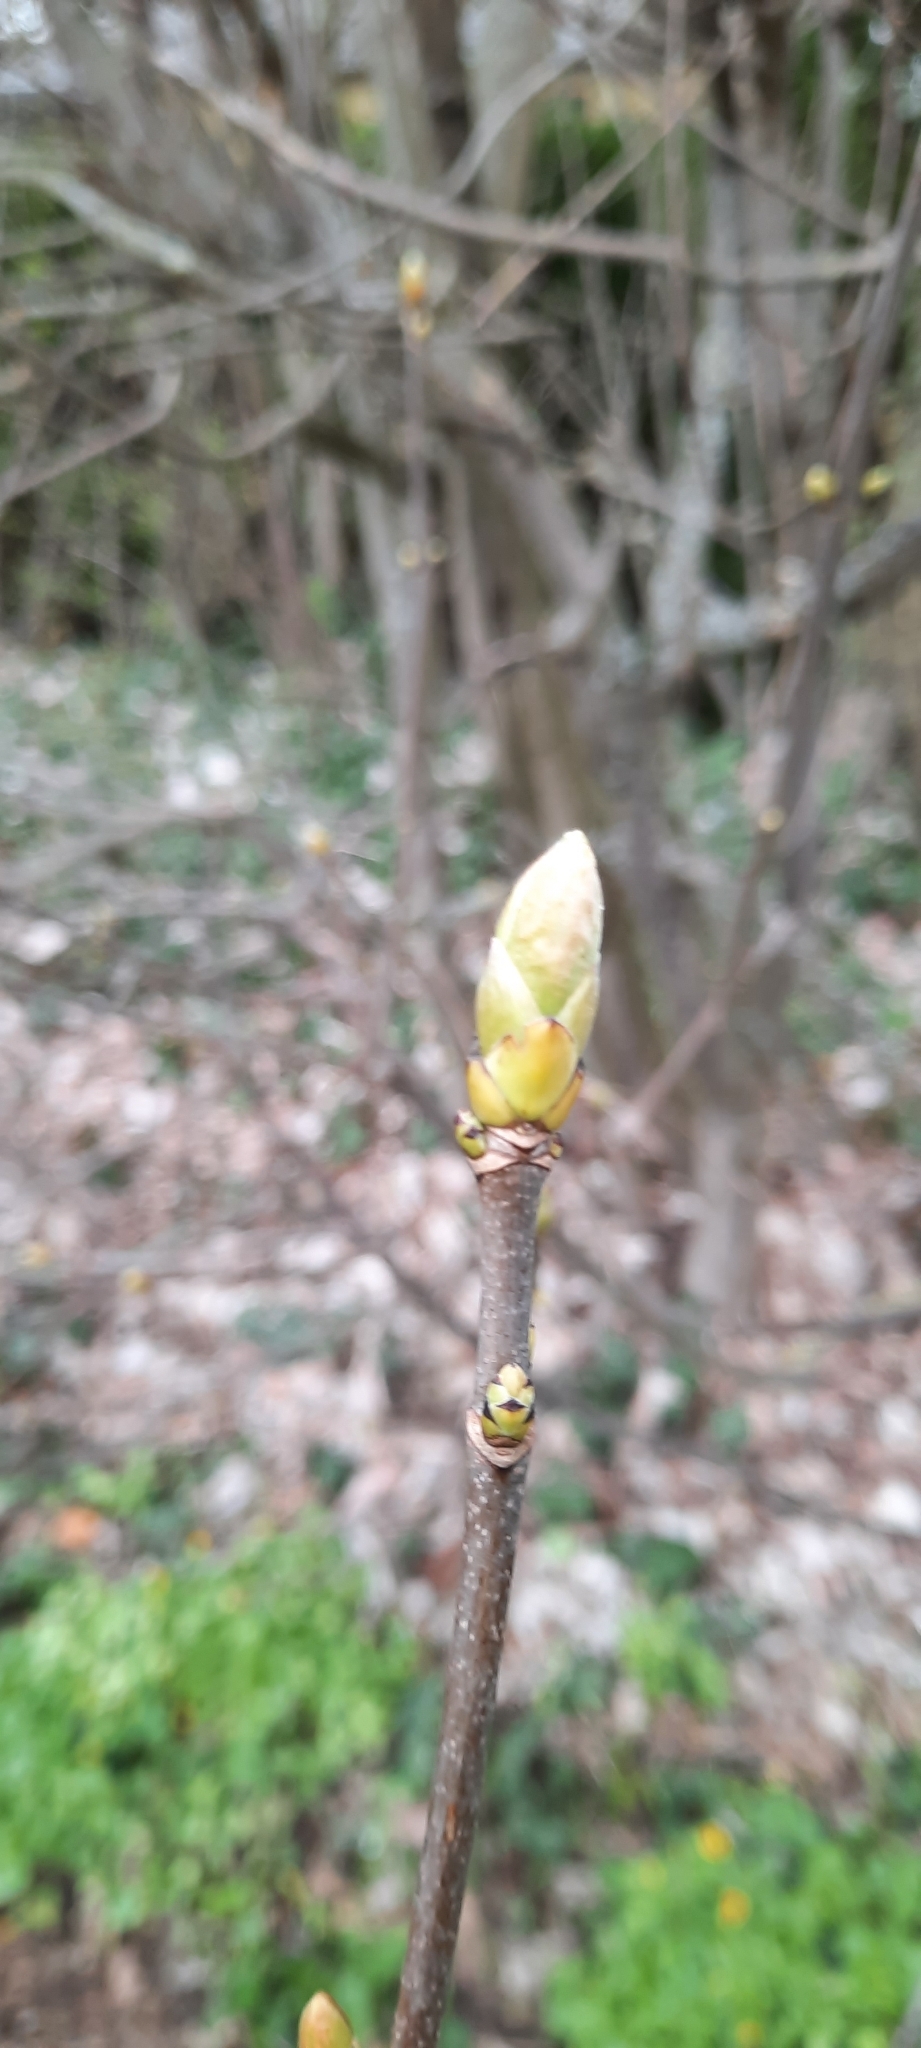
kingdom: Plantae
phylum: Tracheophyta
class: Magnoliopsida
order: Sapindales
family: Sapindaceae
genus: Acer
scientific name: Acer pseudoplatanus
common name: Sycamore
